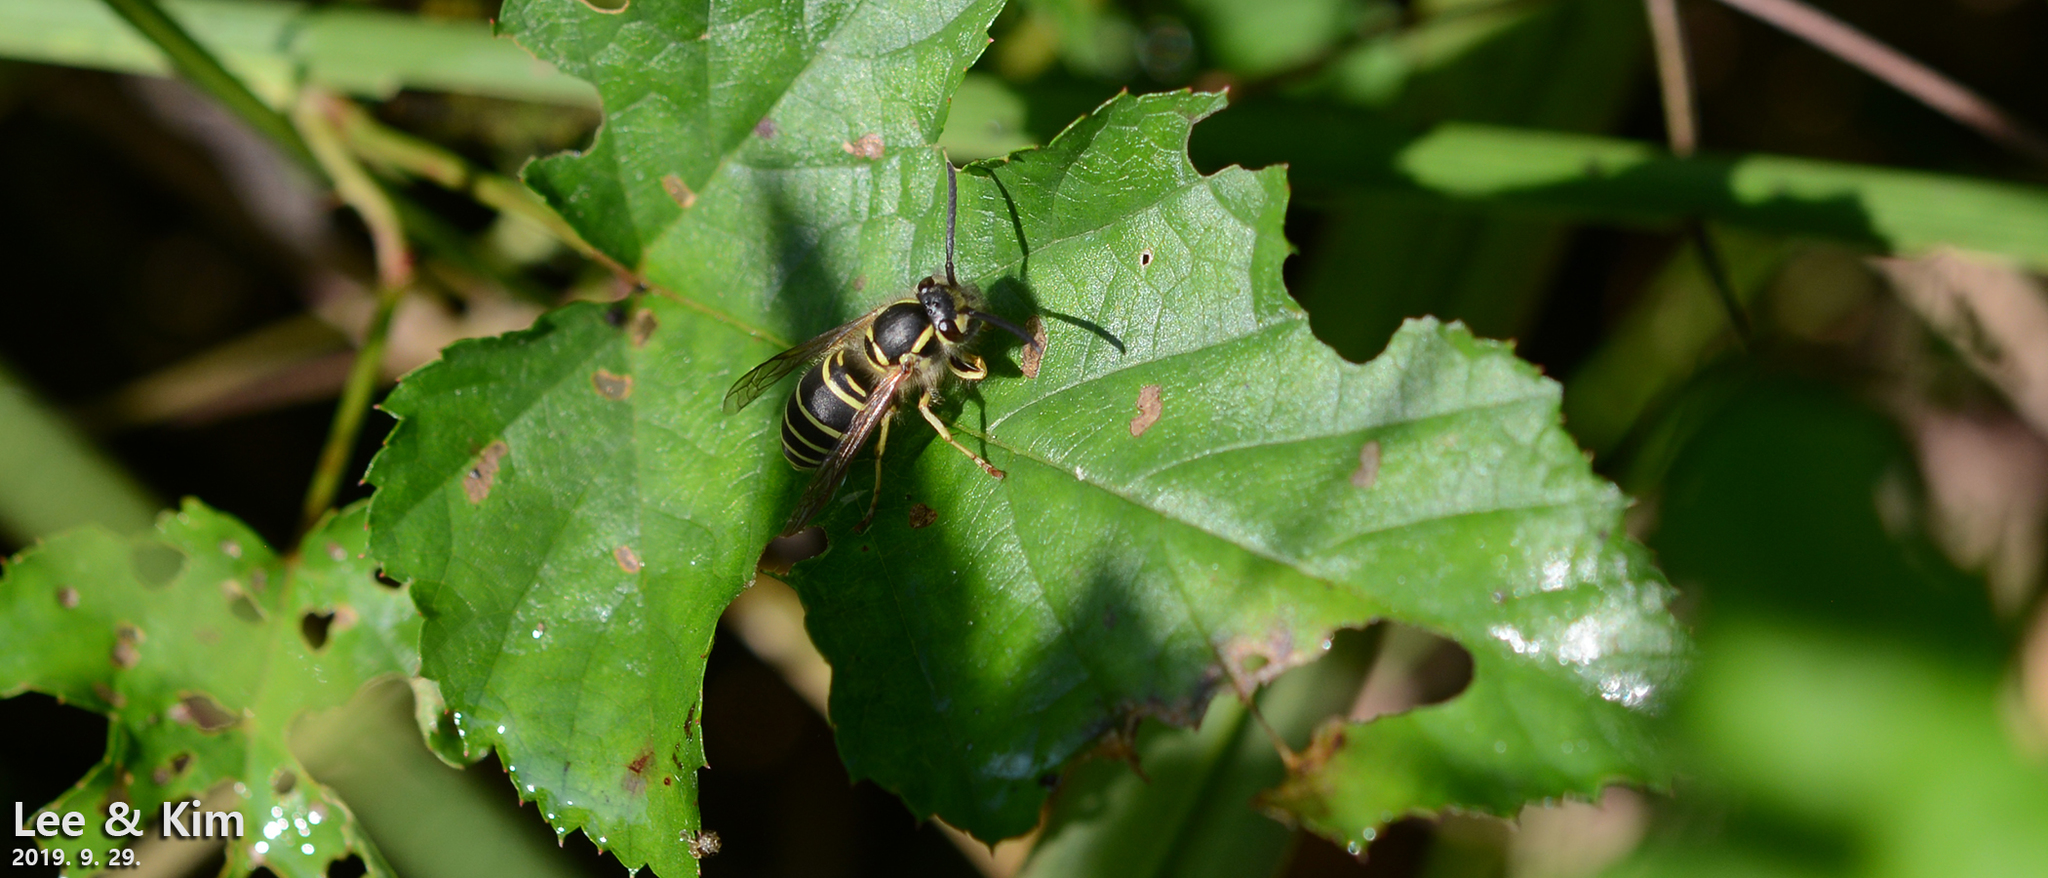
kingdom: Animalia
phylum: Arthropoda
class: Insecta
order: Hymenoptera
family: Vespidae
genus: Vespula
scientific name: Vespula flaviceps
